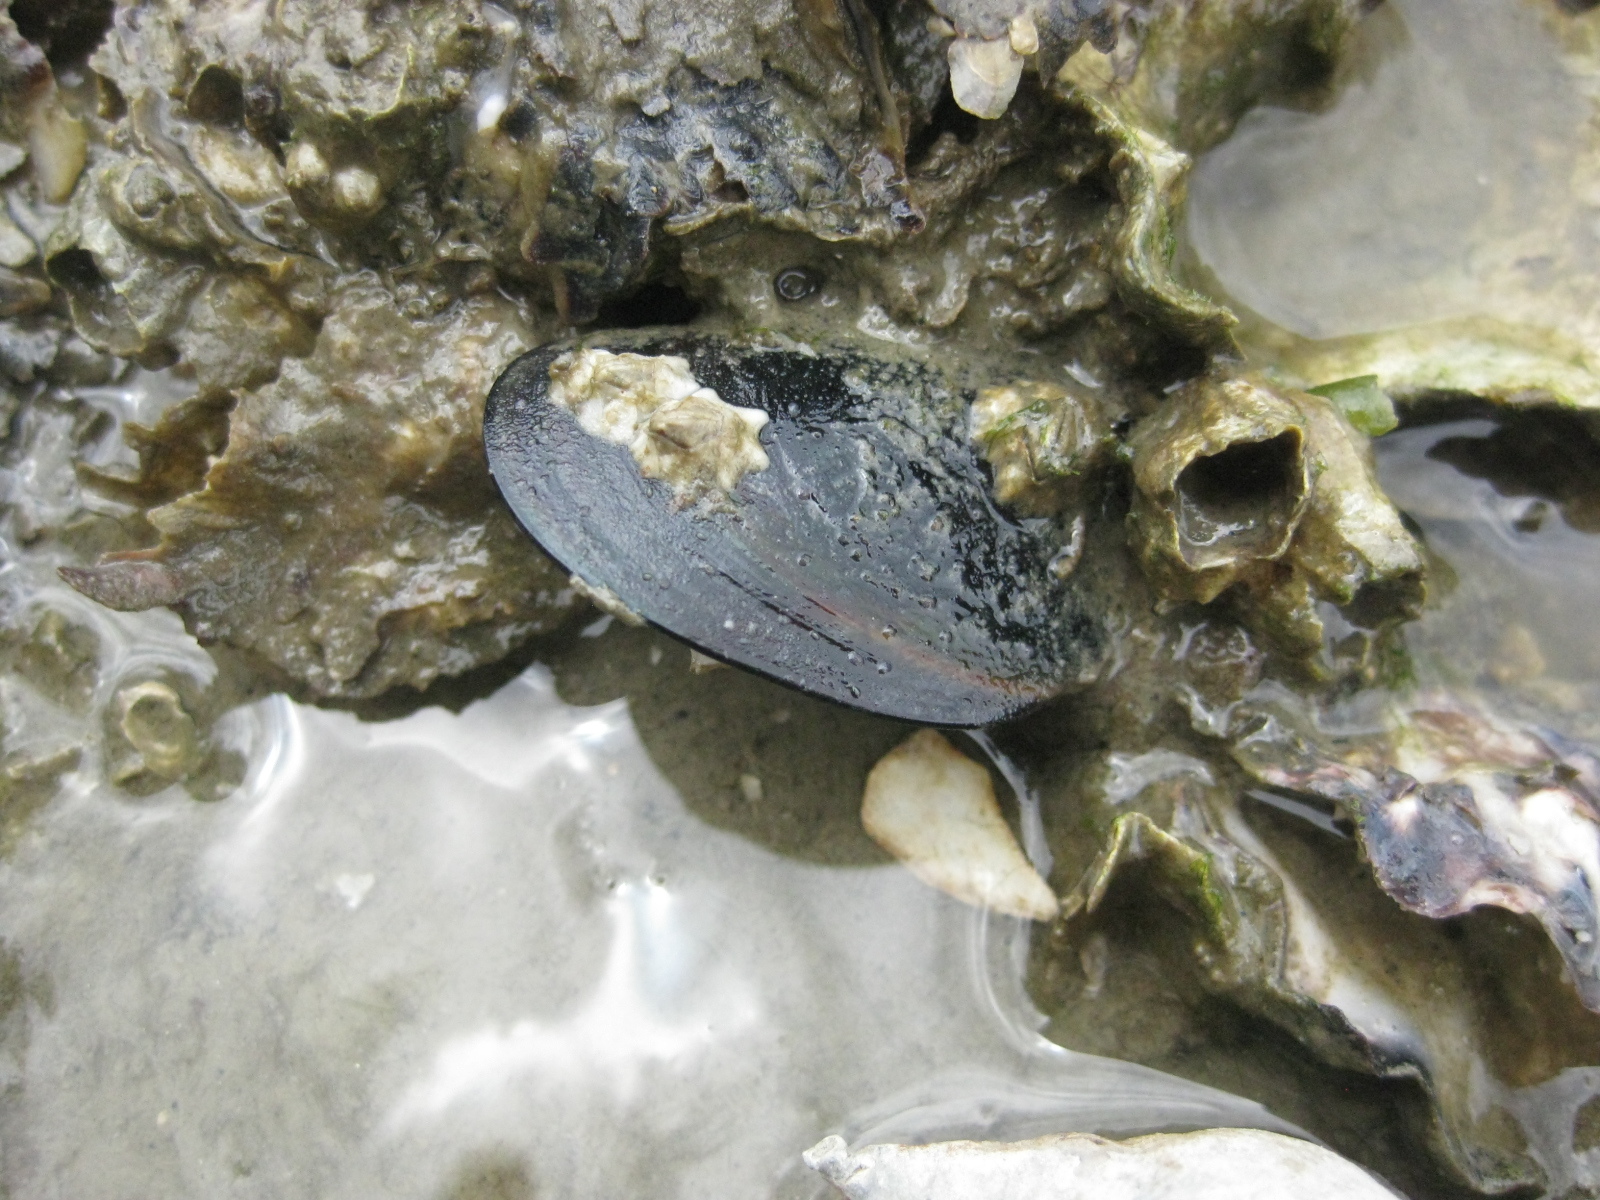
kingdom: Animalia
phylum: Mollusca
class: Bivalvia
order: Mytilida
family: Mytilidae
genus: Perna
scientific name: Perna canaliculus
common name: New zealand greenshelltm
